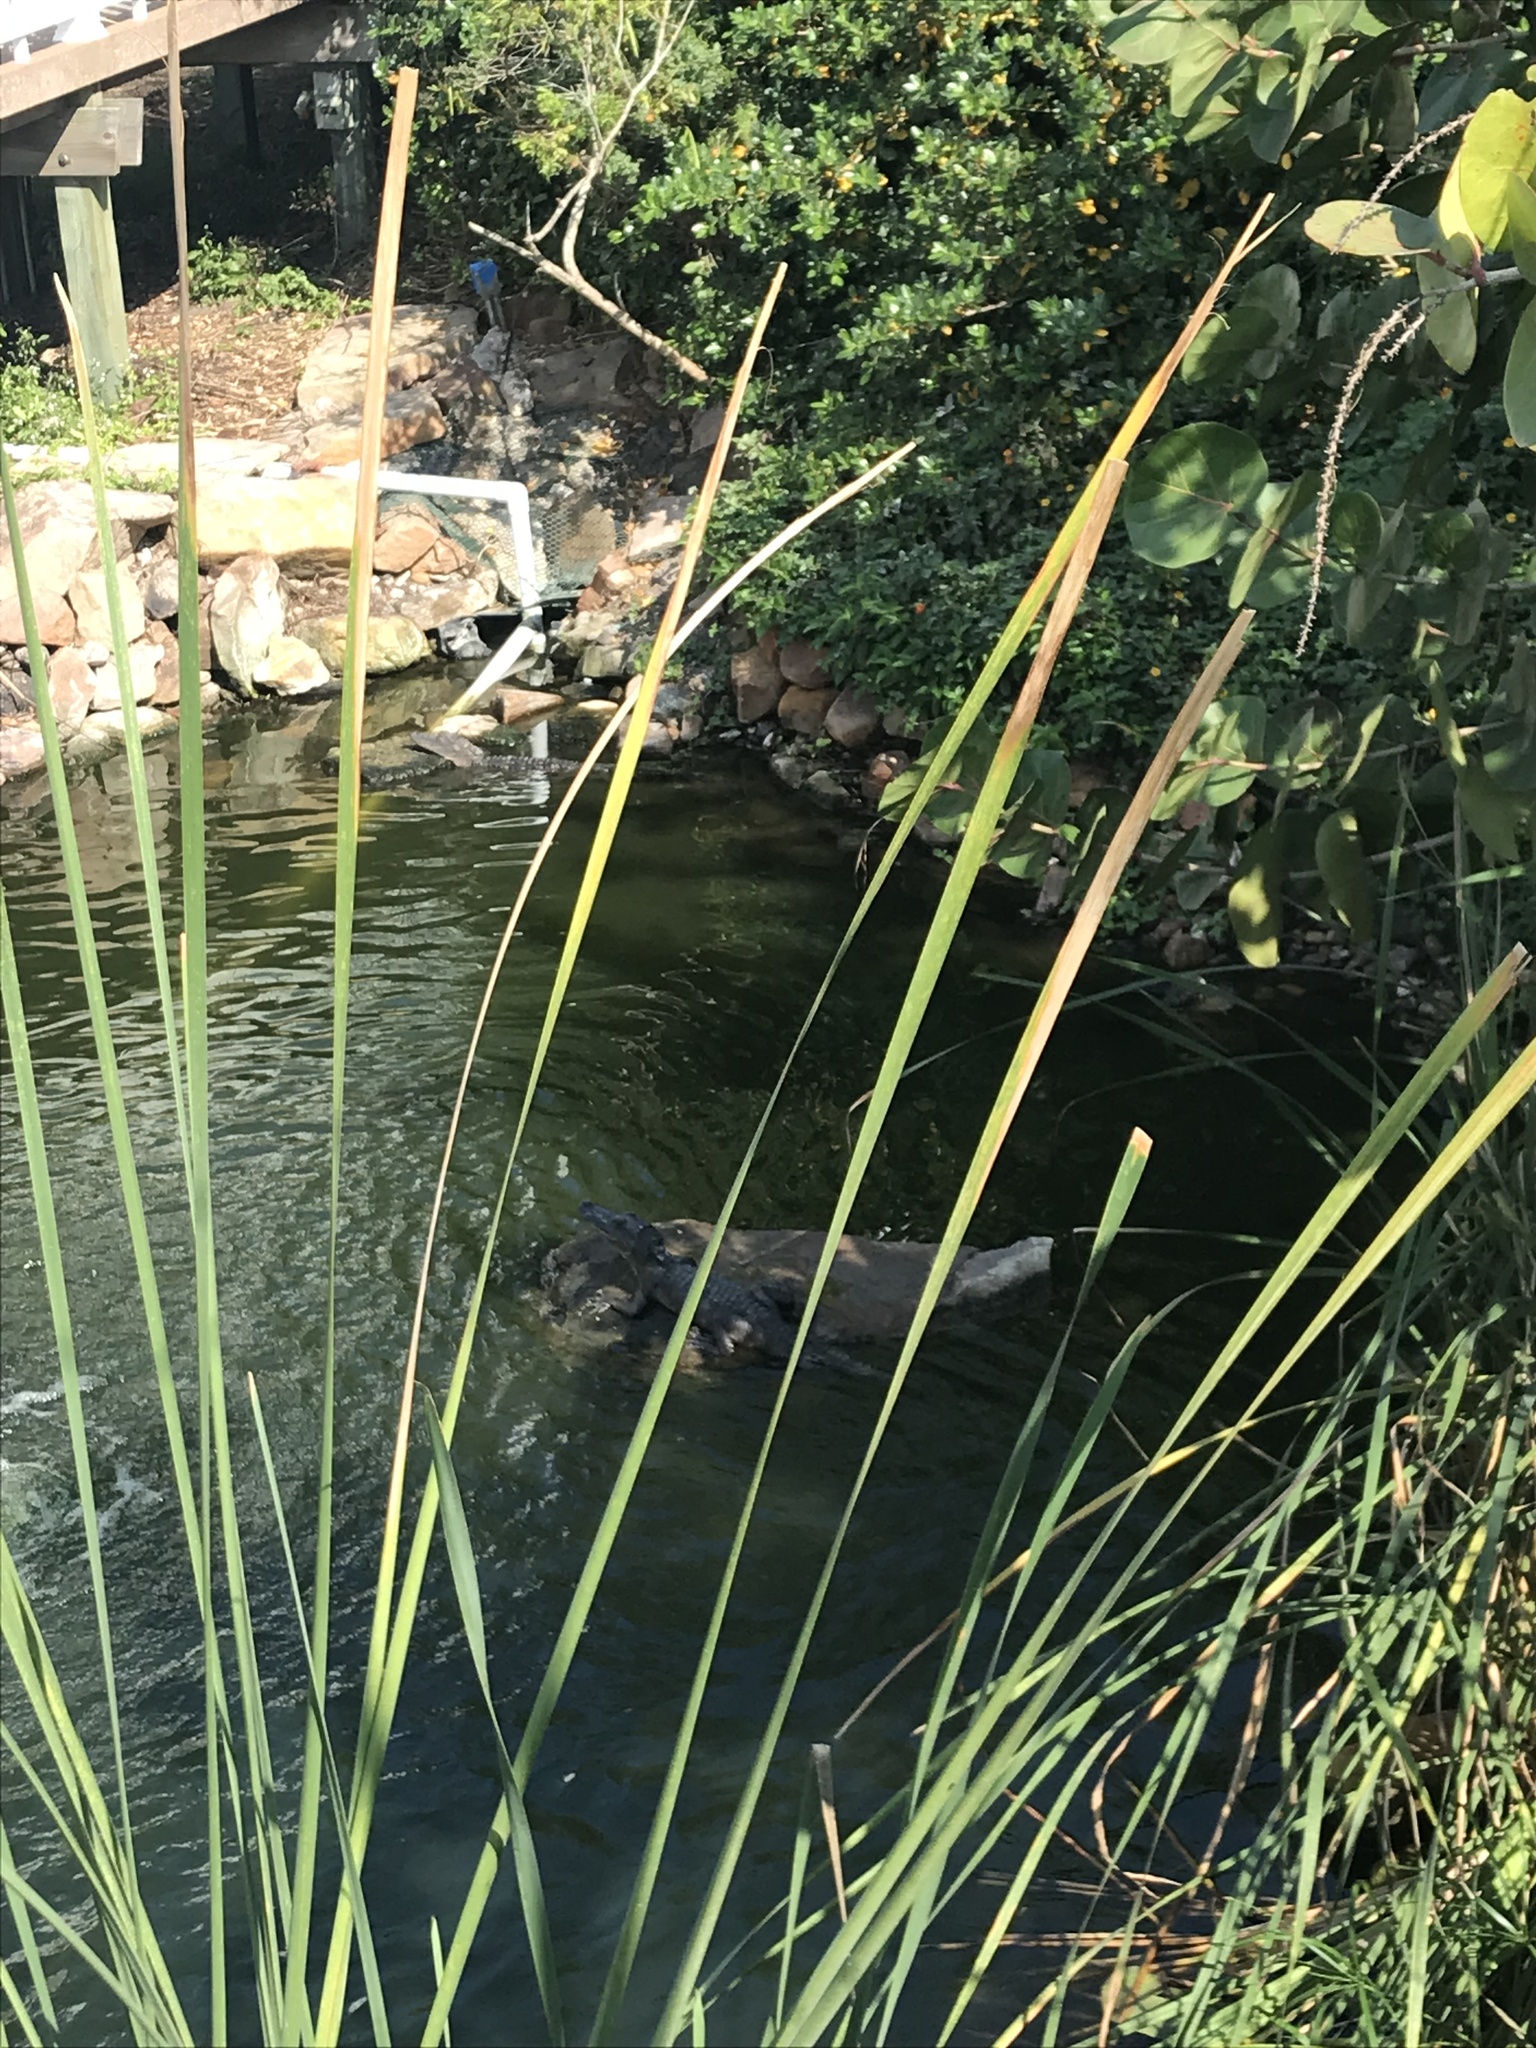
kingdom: Animalia
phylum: Chordata
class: Crocodylia
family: Alligatoridae
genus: Alligator
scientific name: Alligator mississippiensis
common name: American alligator
